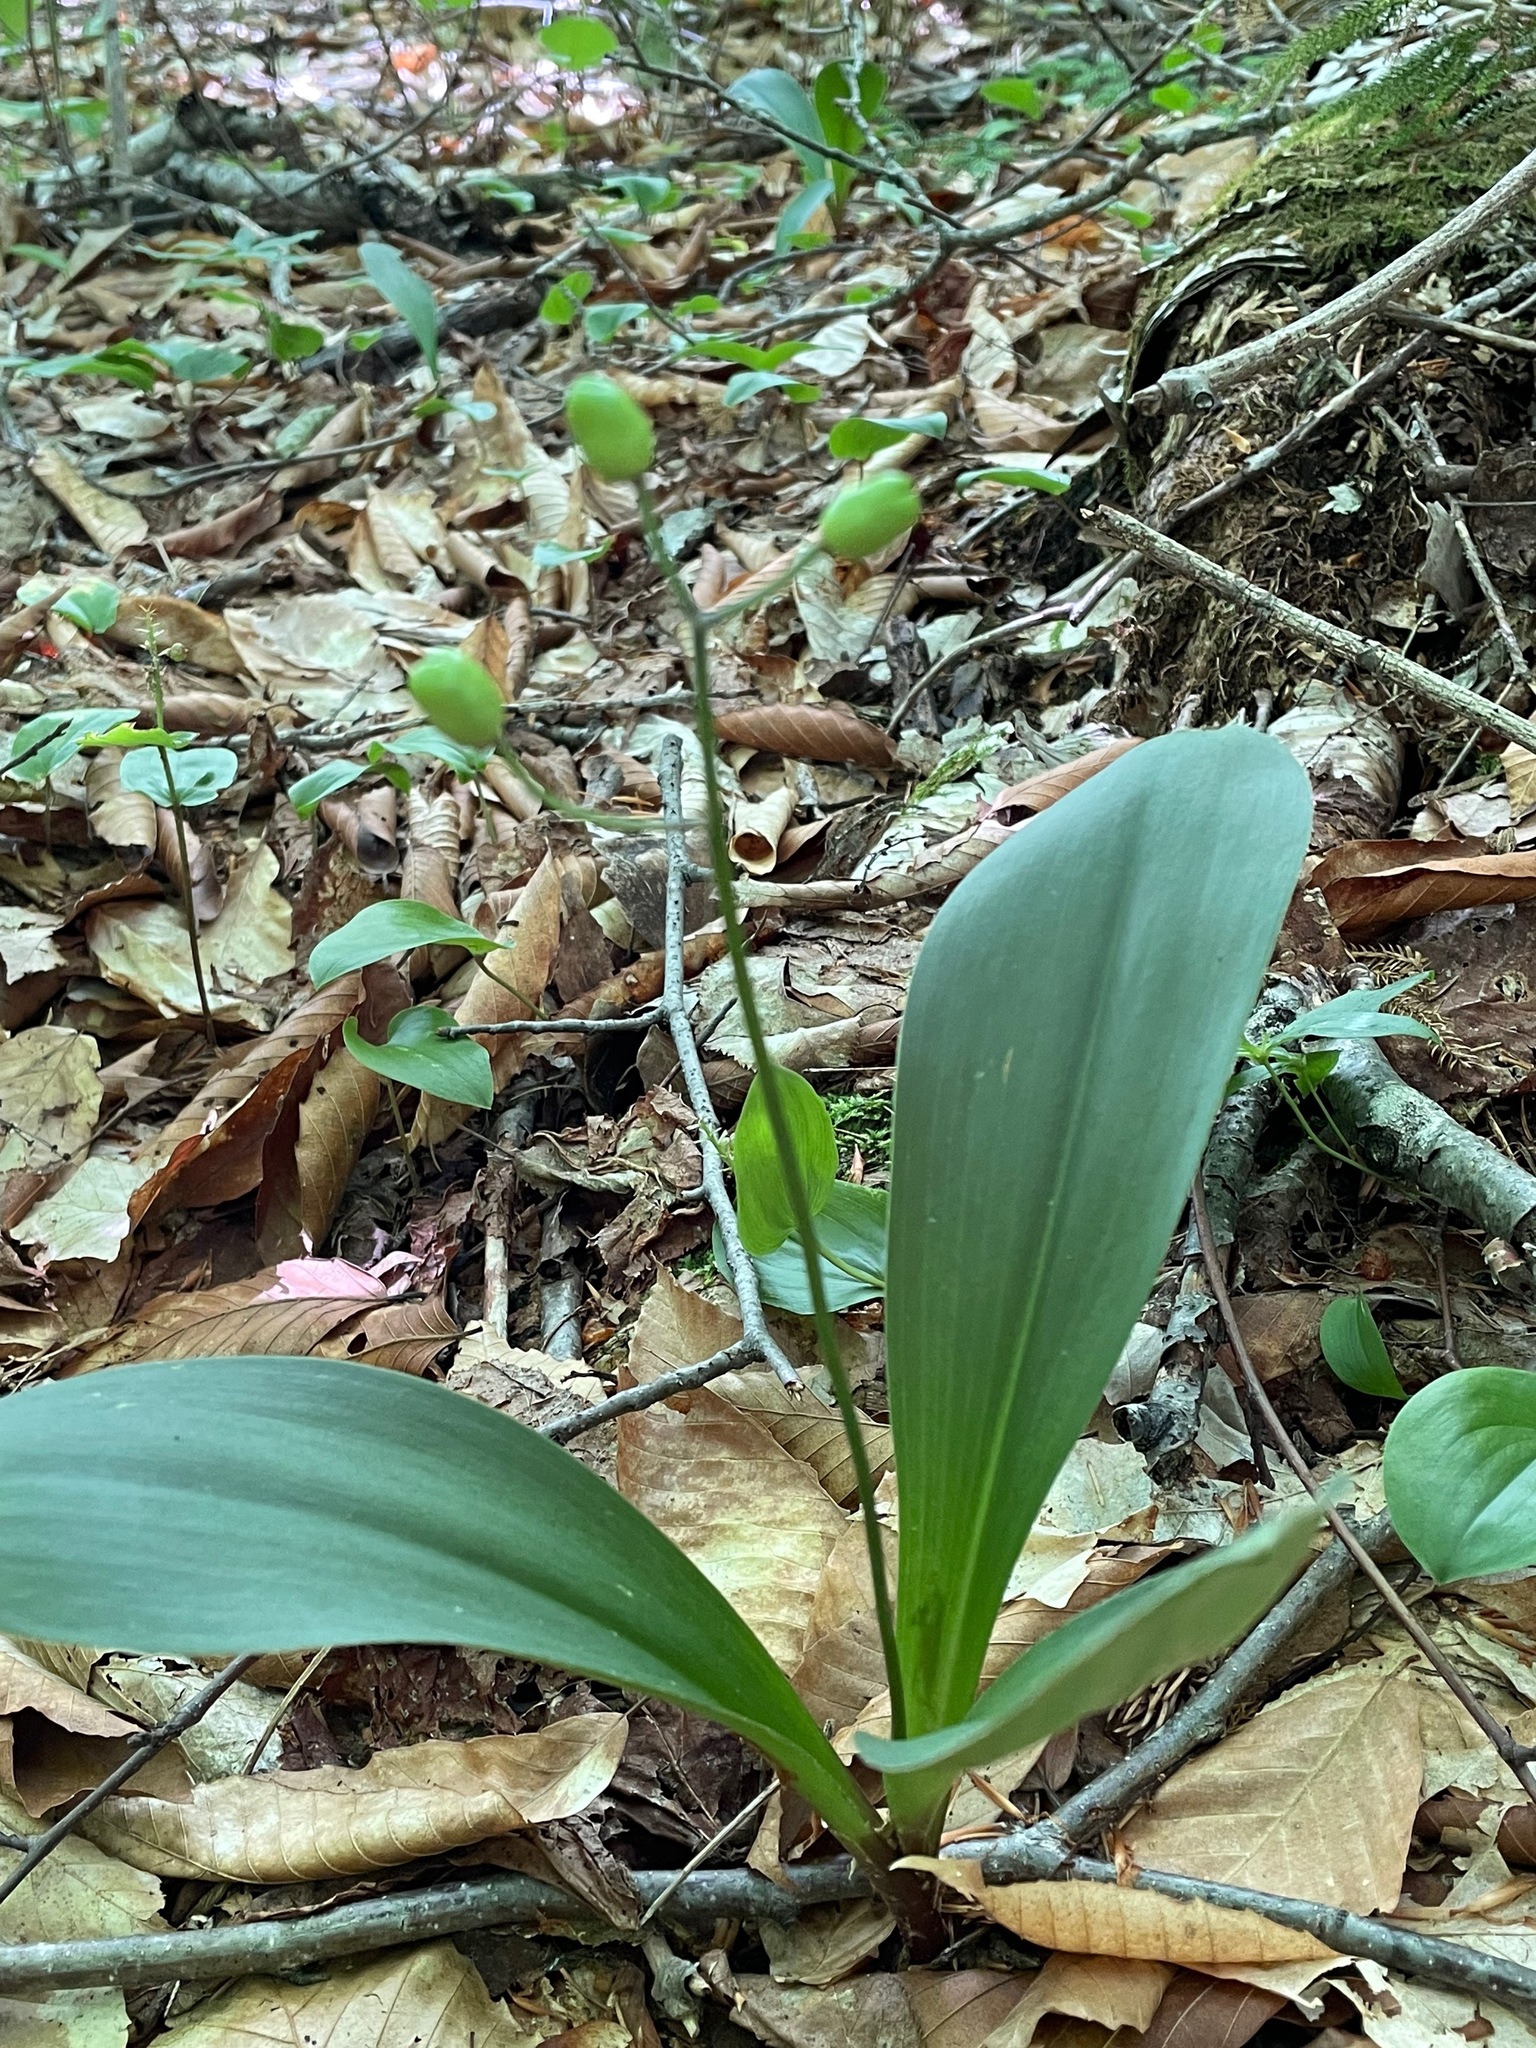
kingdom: Plantae
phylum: Tracheophyta
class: Liliopsida
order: Liliales
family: Liliaceae
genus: Clintonia
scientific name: Clintonia borealis
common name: Yellow clintonia
